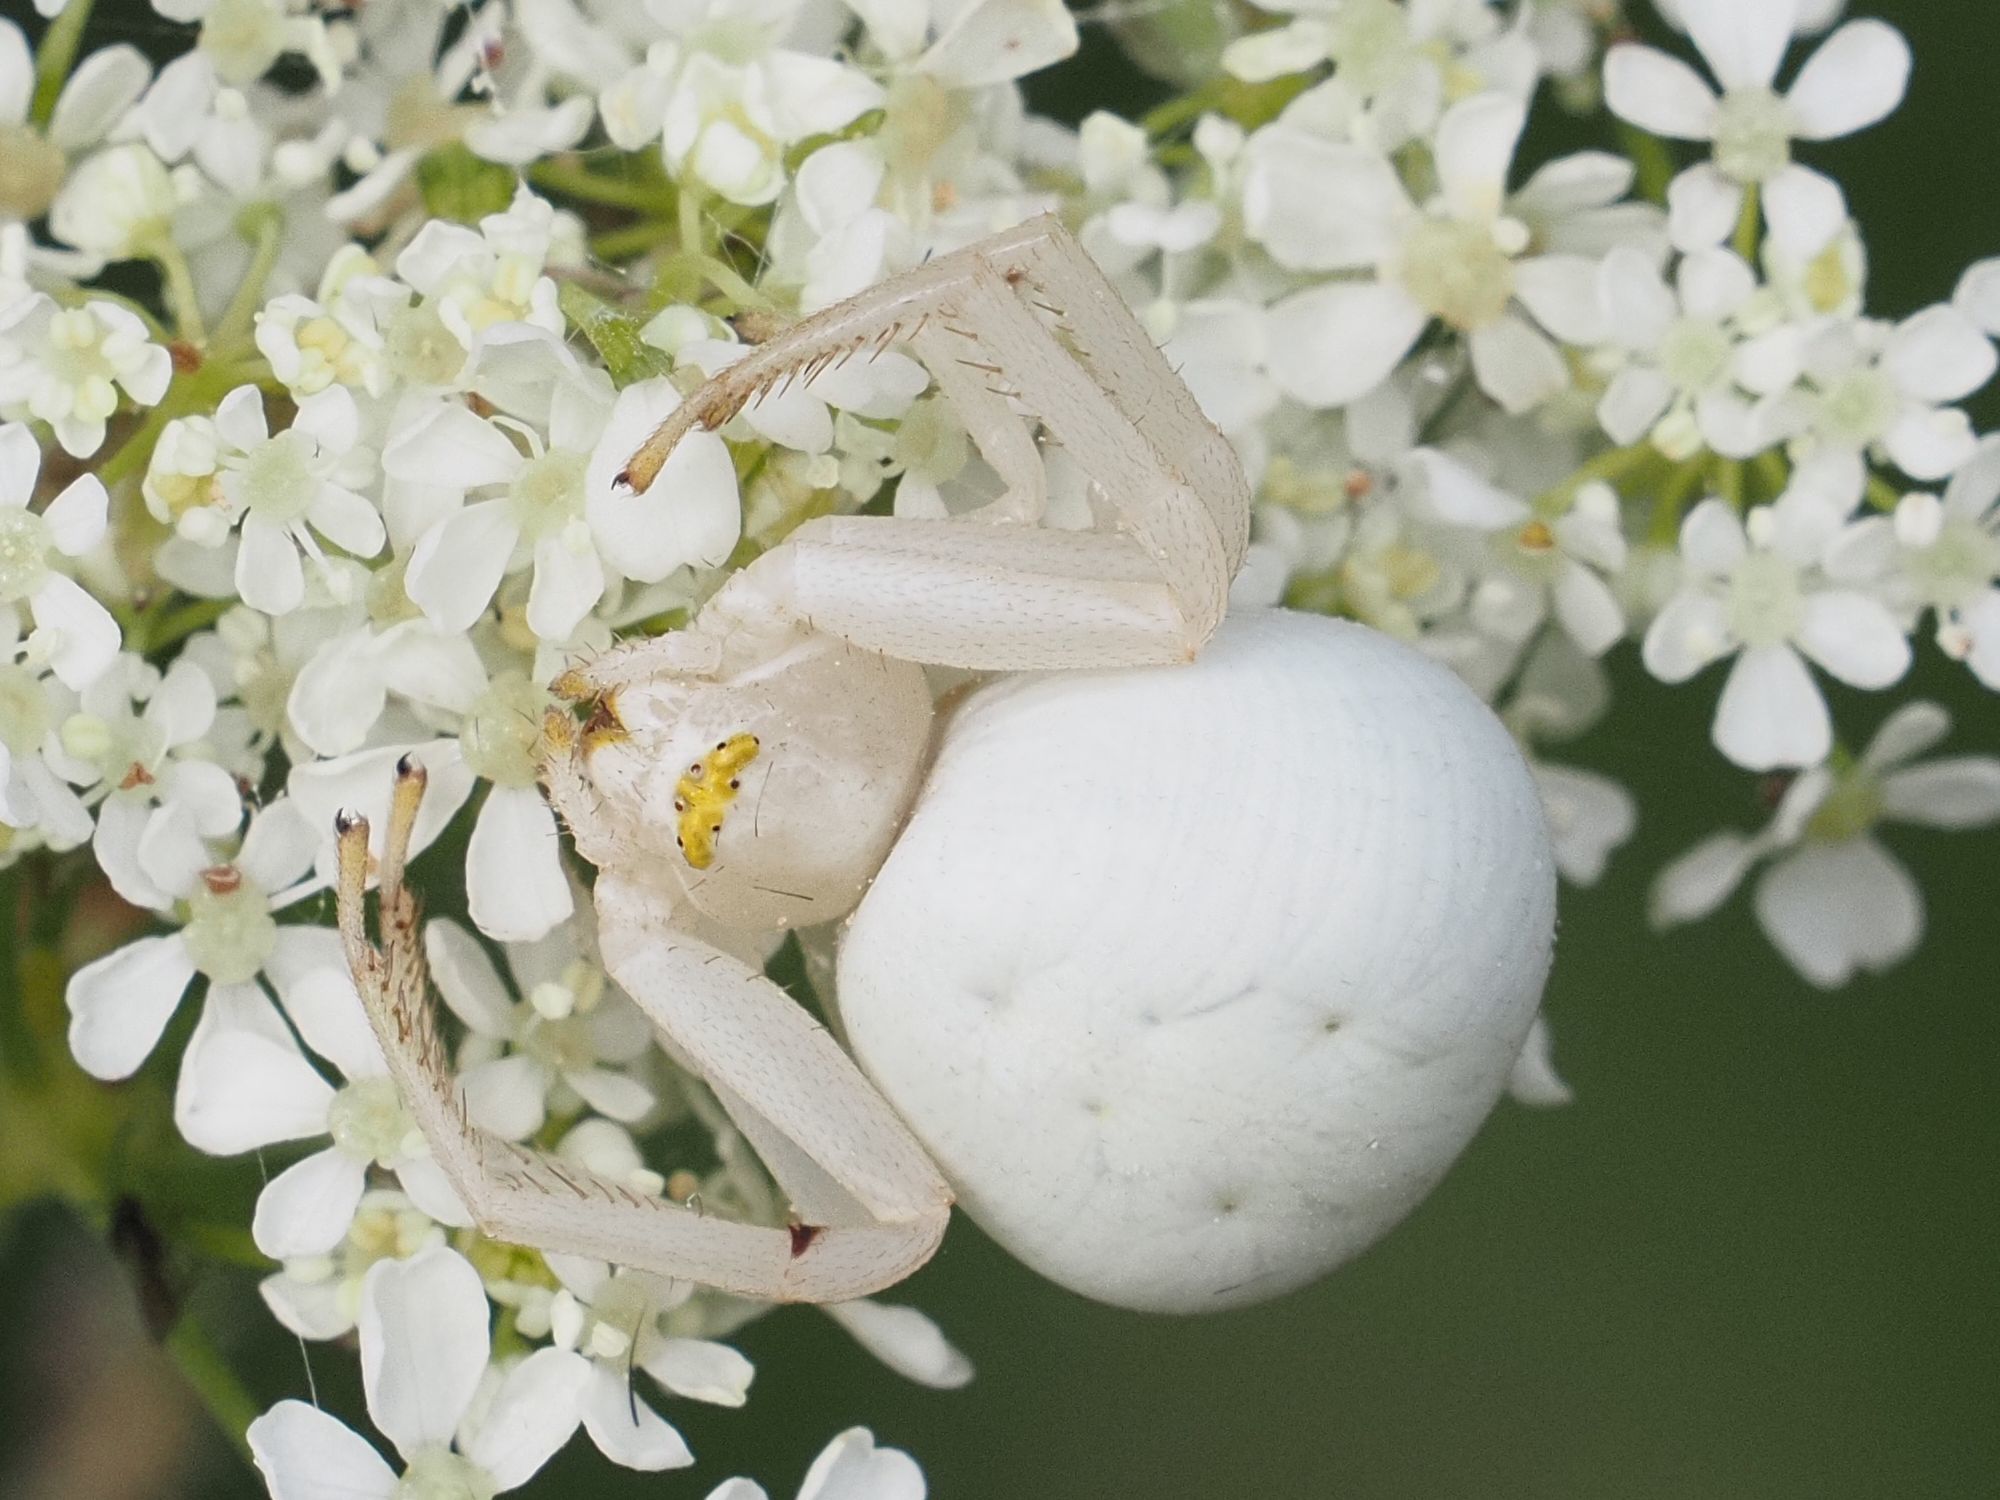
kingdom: Animalia
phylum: Arthropoda
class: Arachnida
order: Araneae
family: Thomisidae
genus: Misumena
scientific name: Misumena vatia
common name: Goldenrod crab spider
